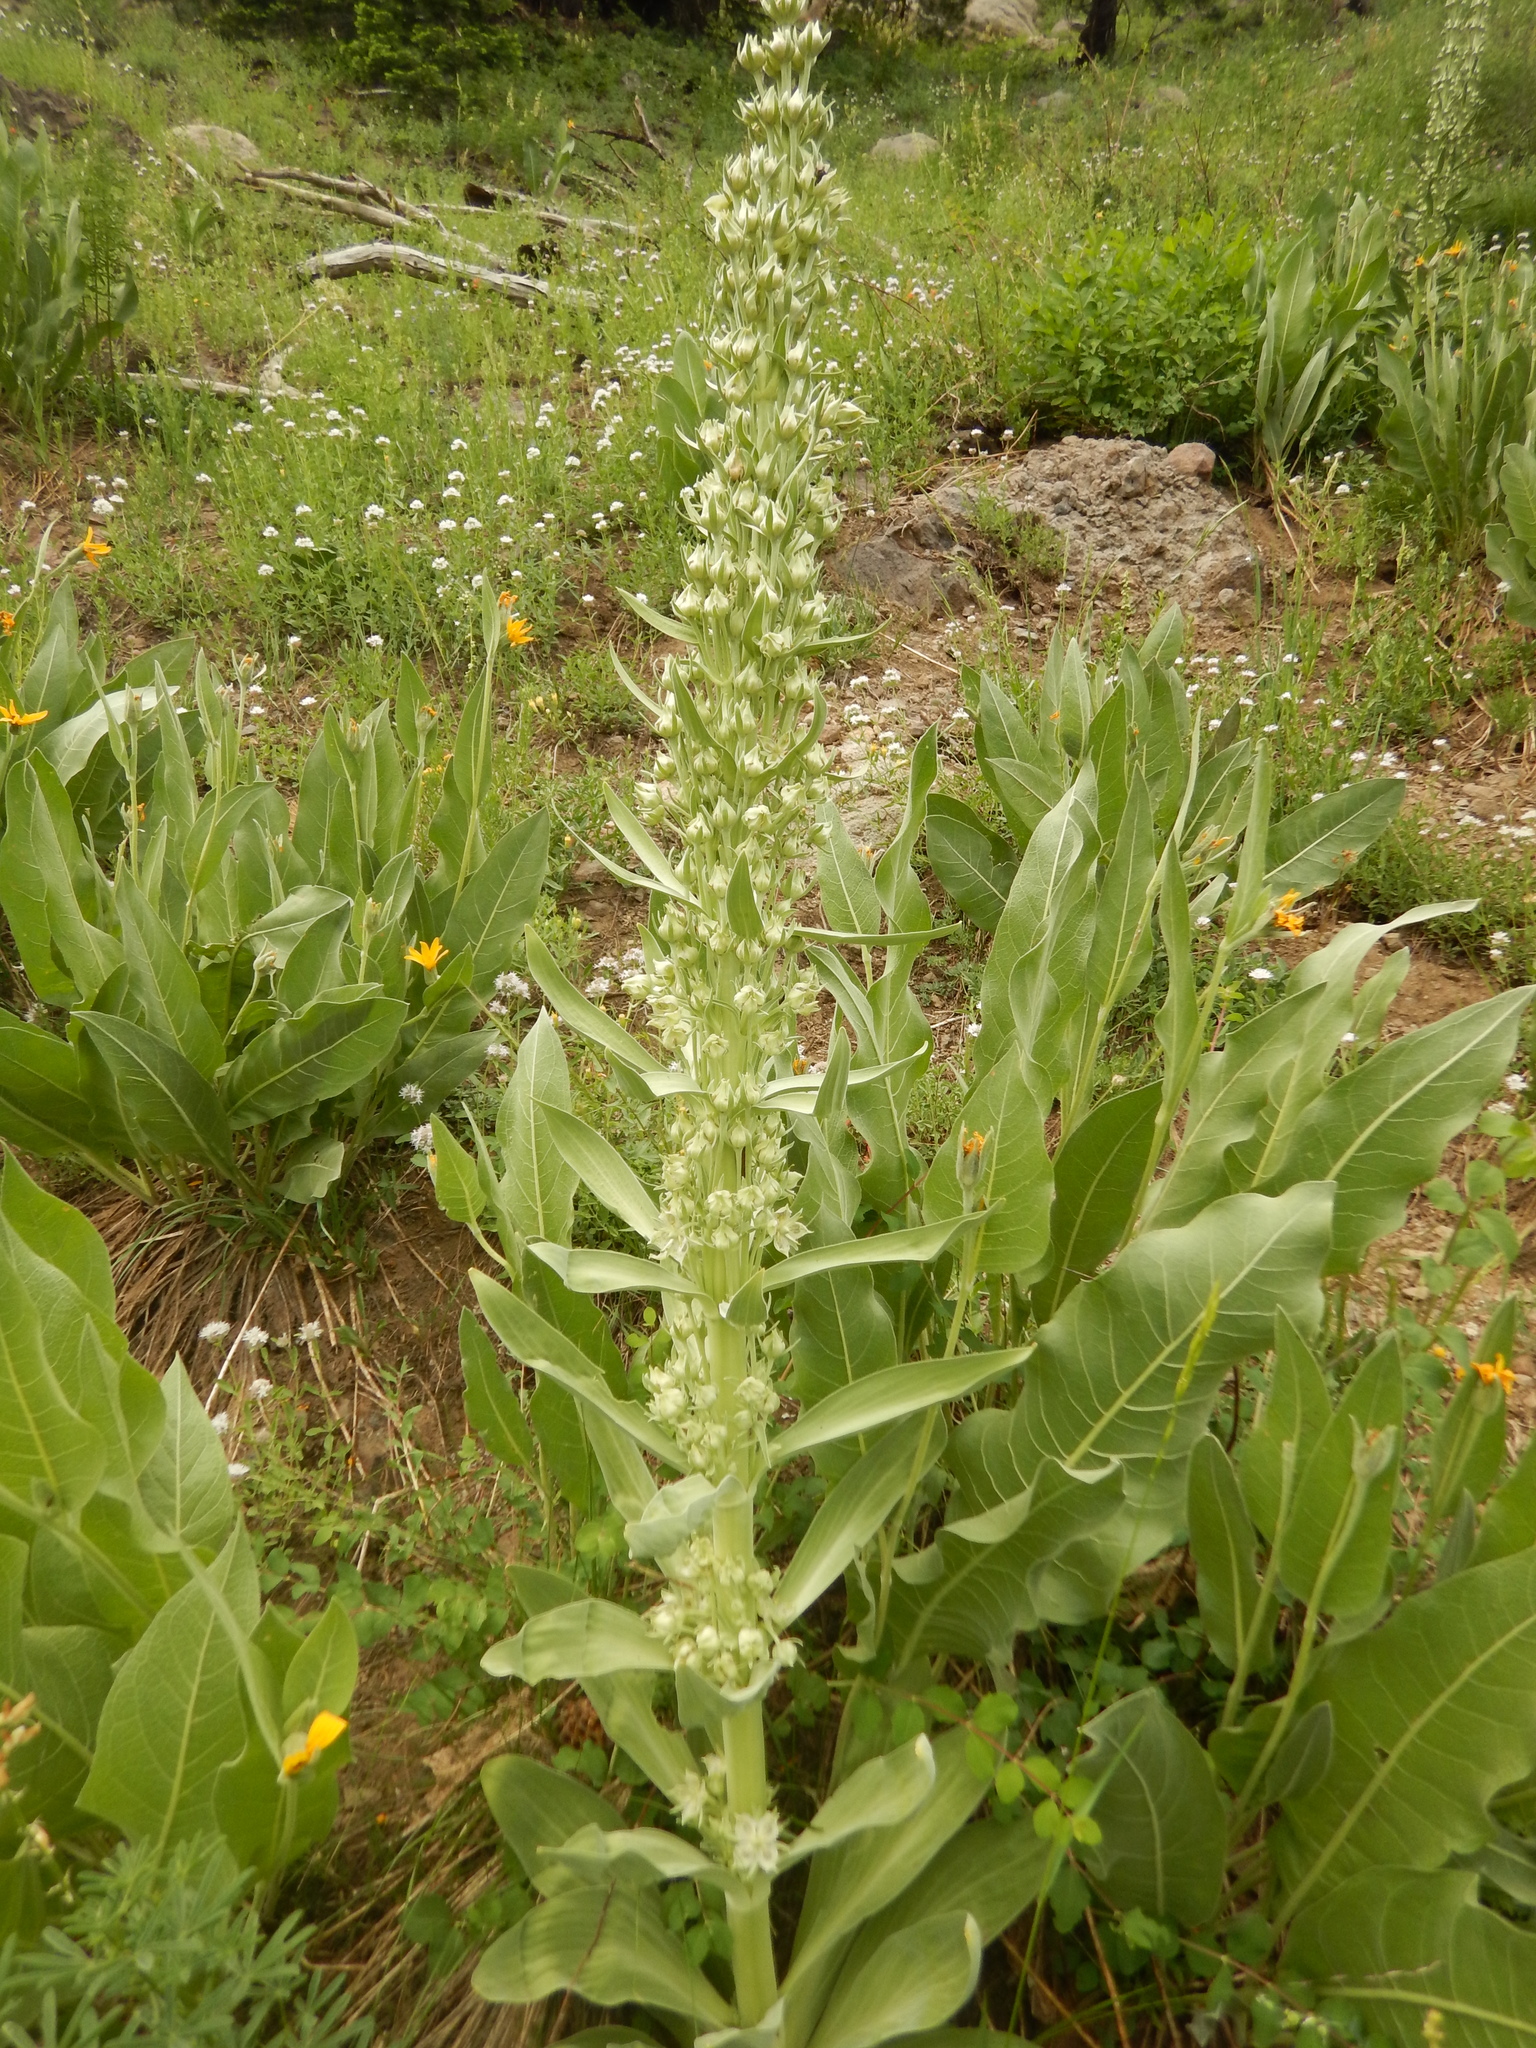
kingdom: Plantae
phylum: Tracheophyta
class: Magnoliopsida
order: Gentianales
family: Gentianaceae
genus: Frasera
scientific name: Frasera speciosa
